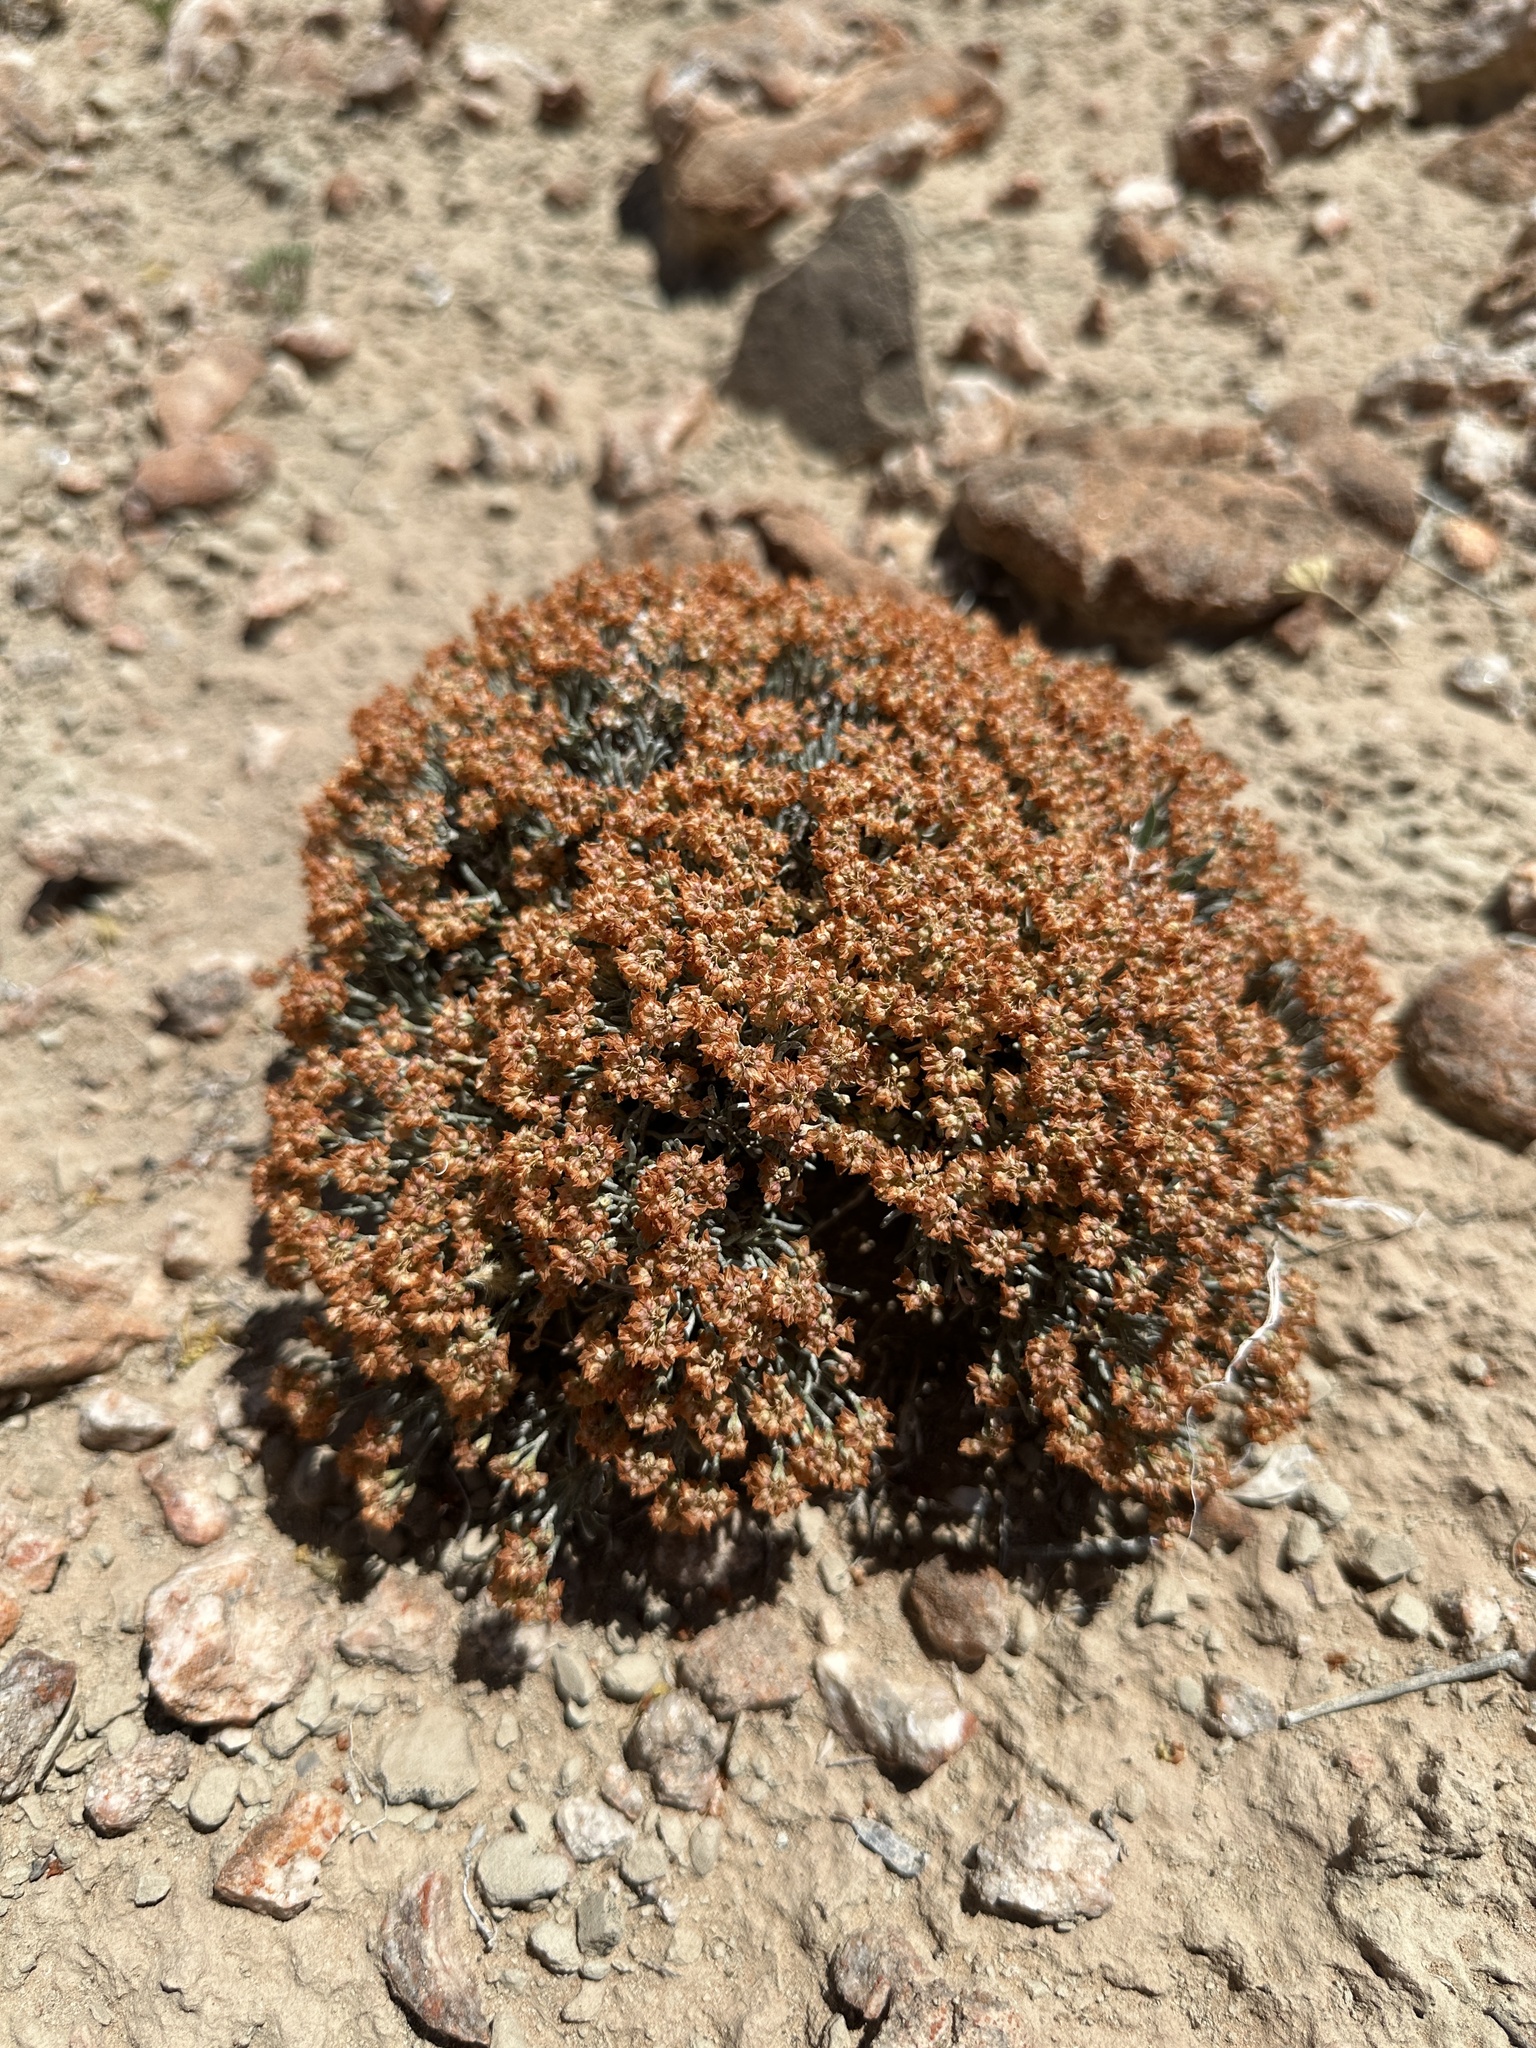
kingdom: Plantae
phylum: Tracheophyta
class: Magnoliopsida
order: Caryophyllales
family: Polygonaceae
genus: Eriogonum
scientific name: Eriogonum bicolor
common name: Pretty wild buckwheat
